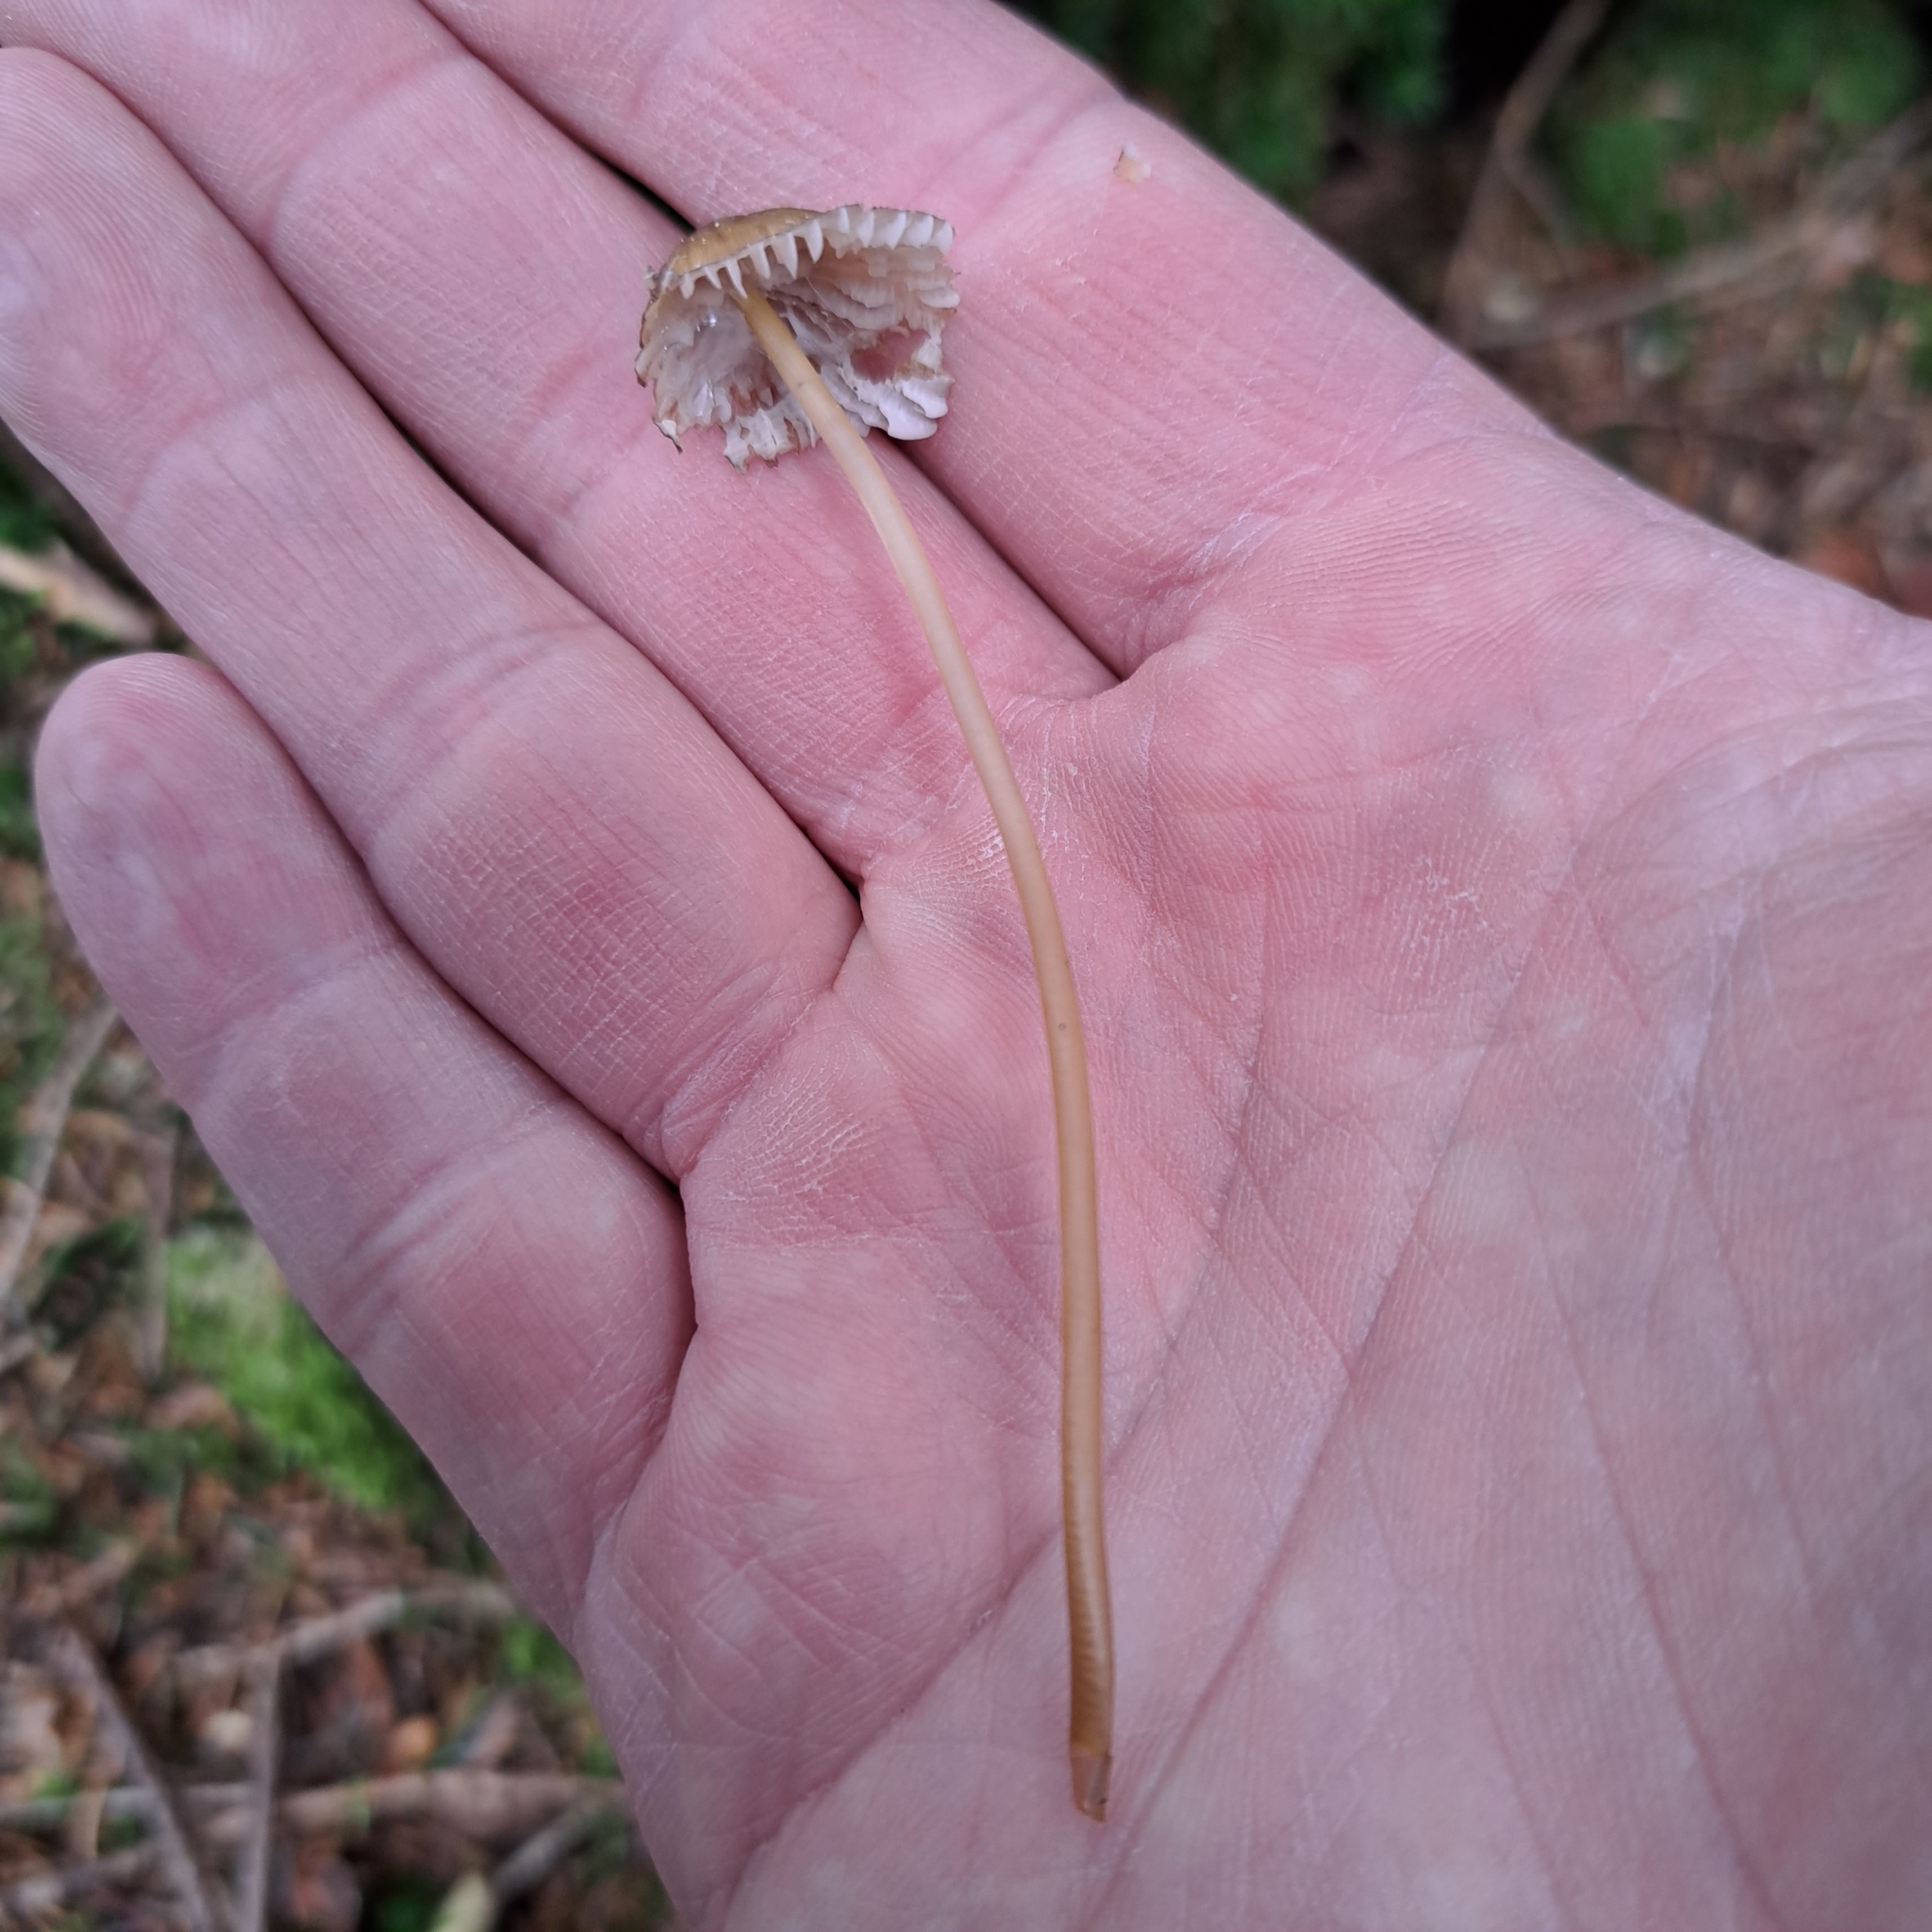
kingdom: Fungi
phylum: Basidiomycota
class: Agaricomycetes
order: Agaricales
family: Mycenaceae
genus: Mycena
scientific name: Mycena viridimarginata
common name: Olive edge bonnet
